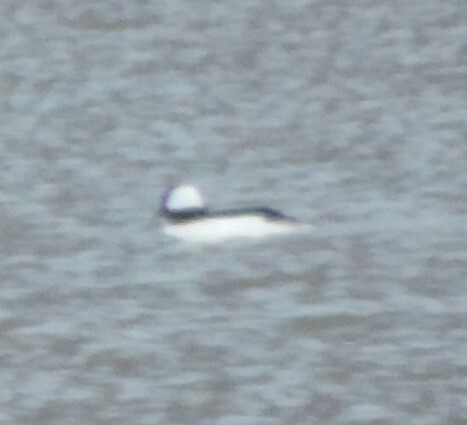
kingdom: Animalia
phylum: Chordata
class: Aves
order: Anseriformes
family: Anatidae
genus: Bucephala
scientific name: Bucephala albeola
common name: Bufflehead
